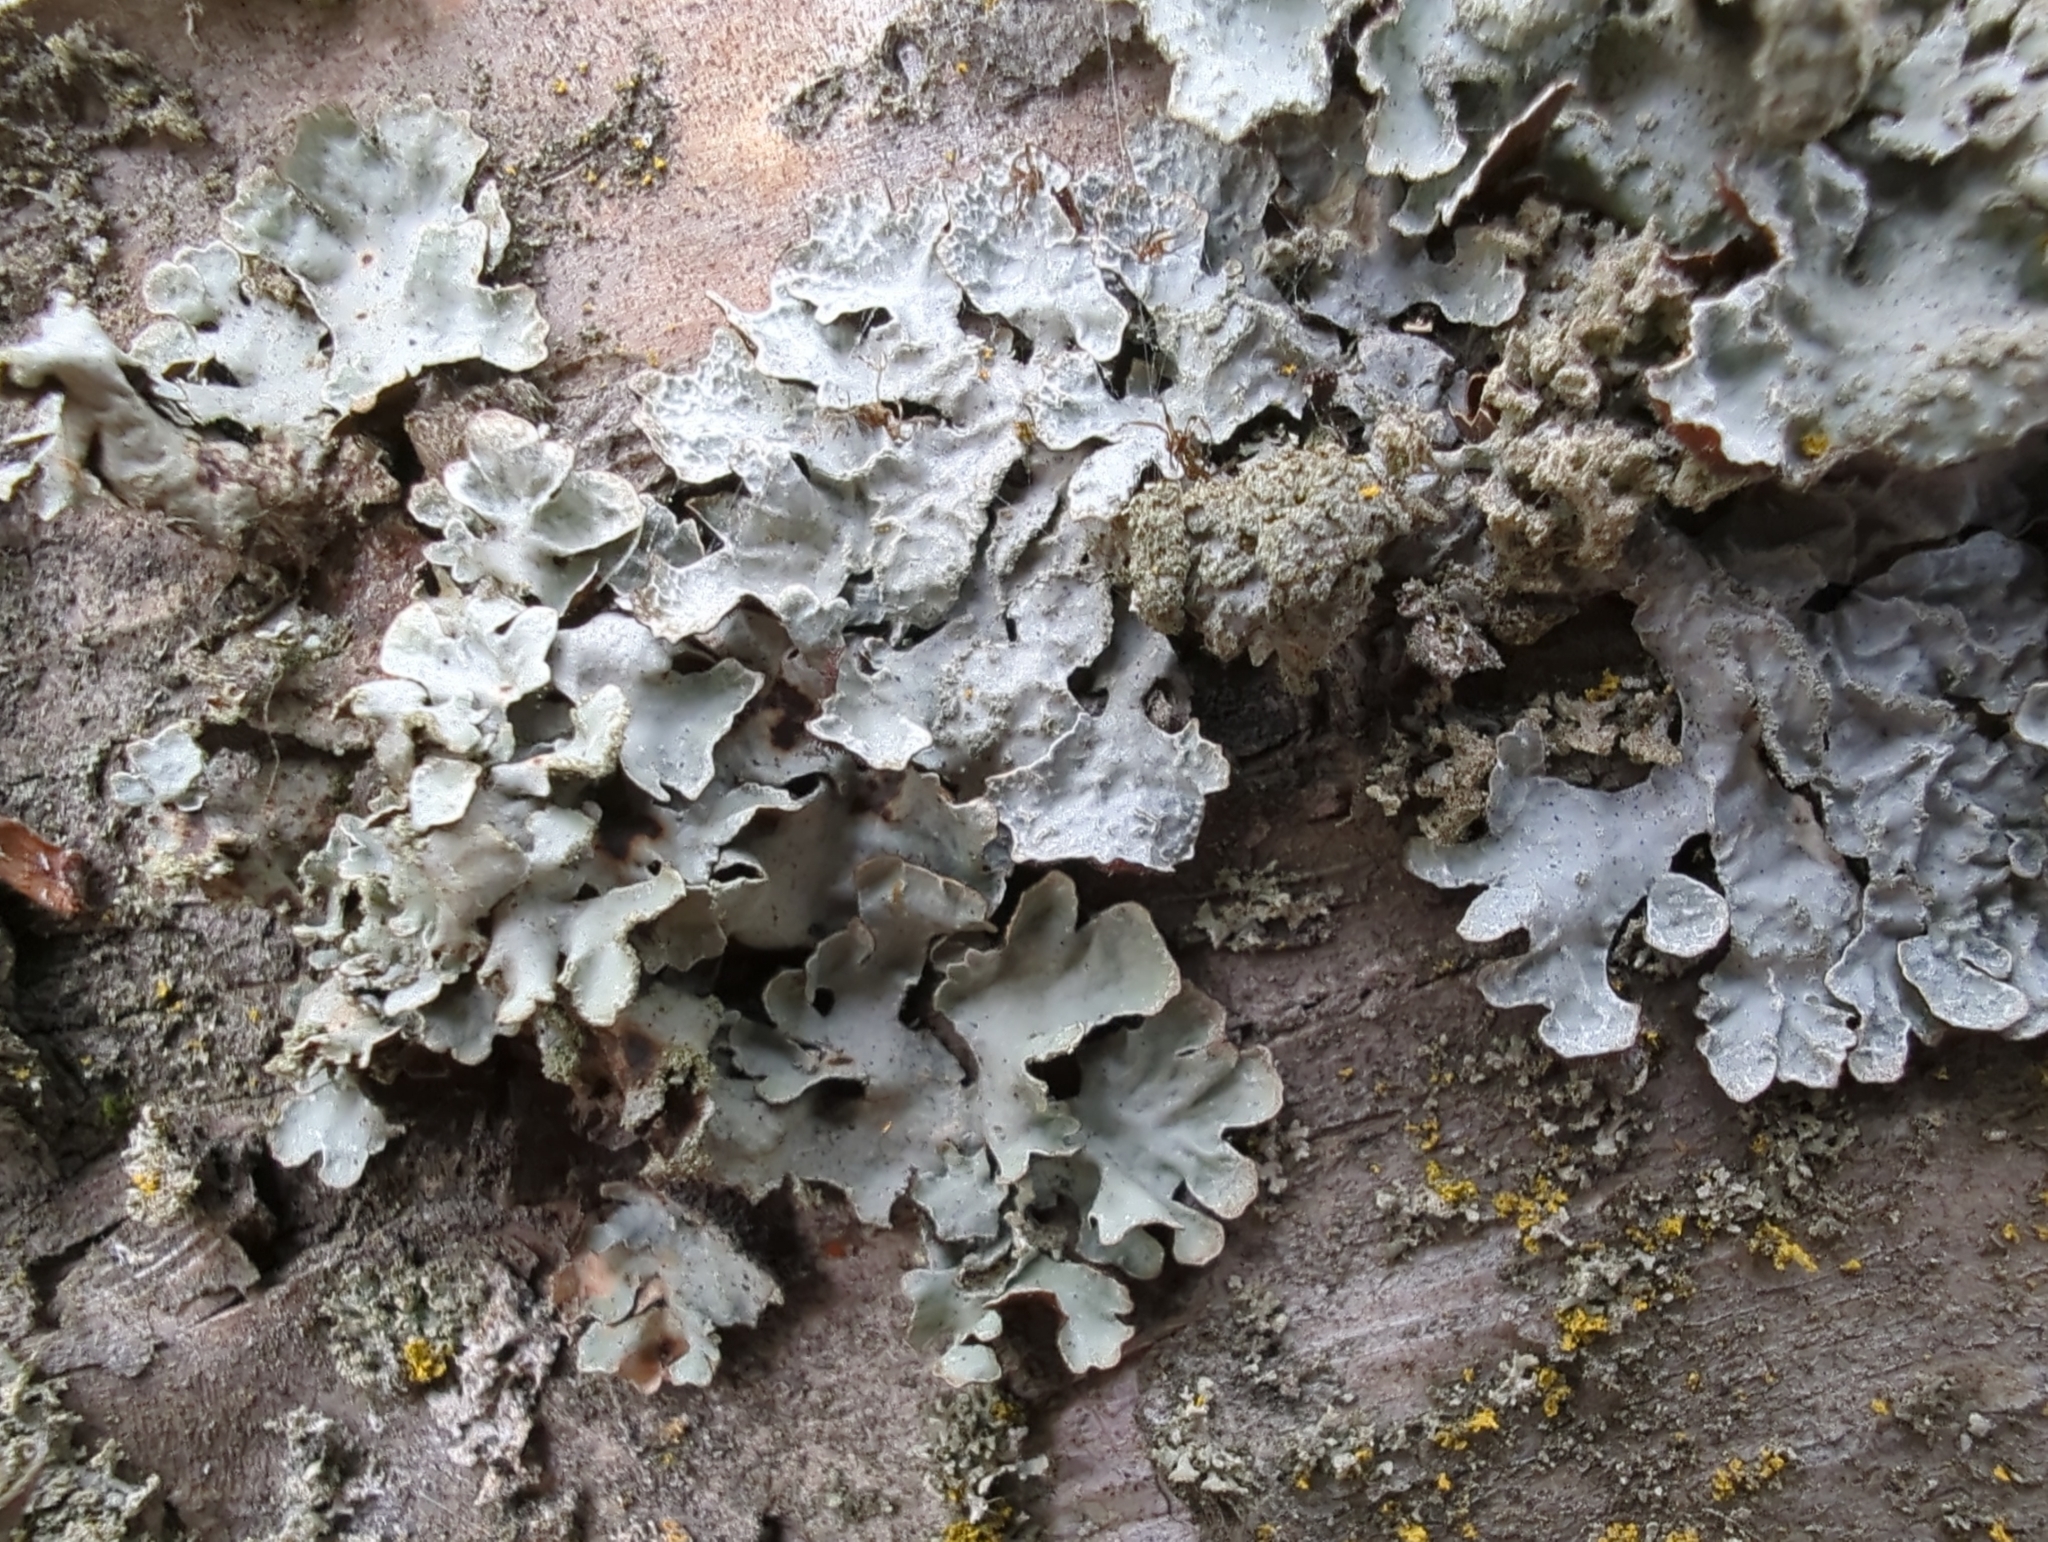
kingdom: Fungi
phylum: Ascomycota
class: Lecanoromycetes
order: Lecanorales
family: Parmeliaceae
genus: Parmelia
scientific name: Parmelia sulcata
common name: Netted shield lichen
